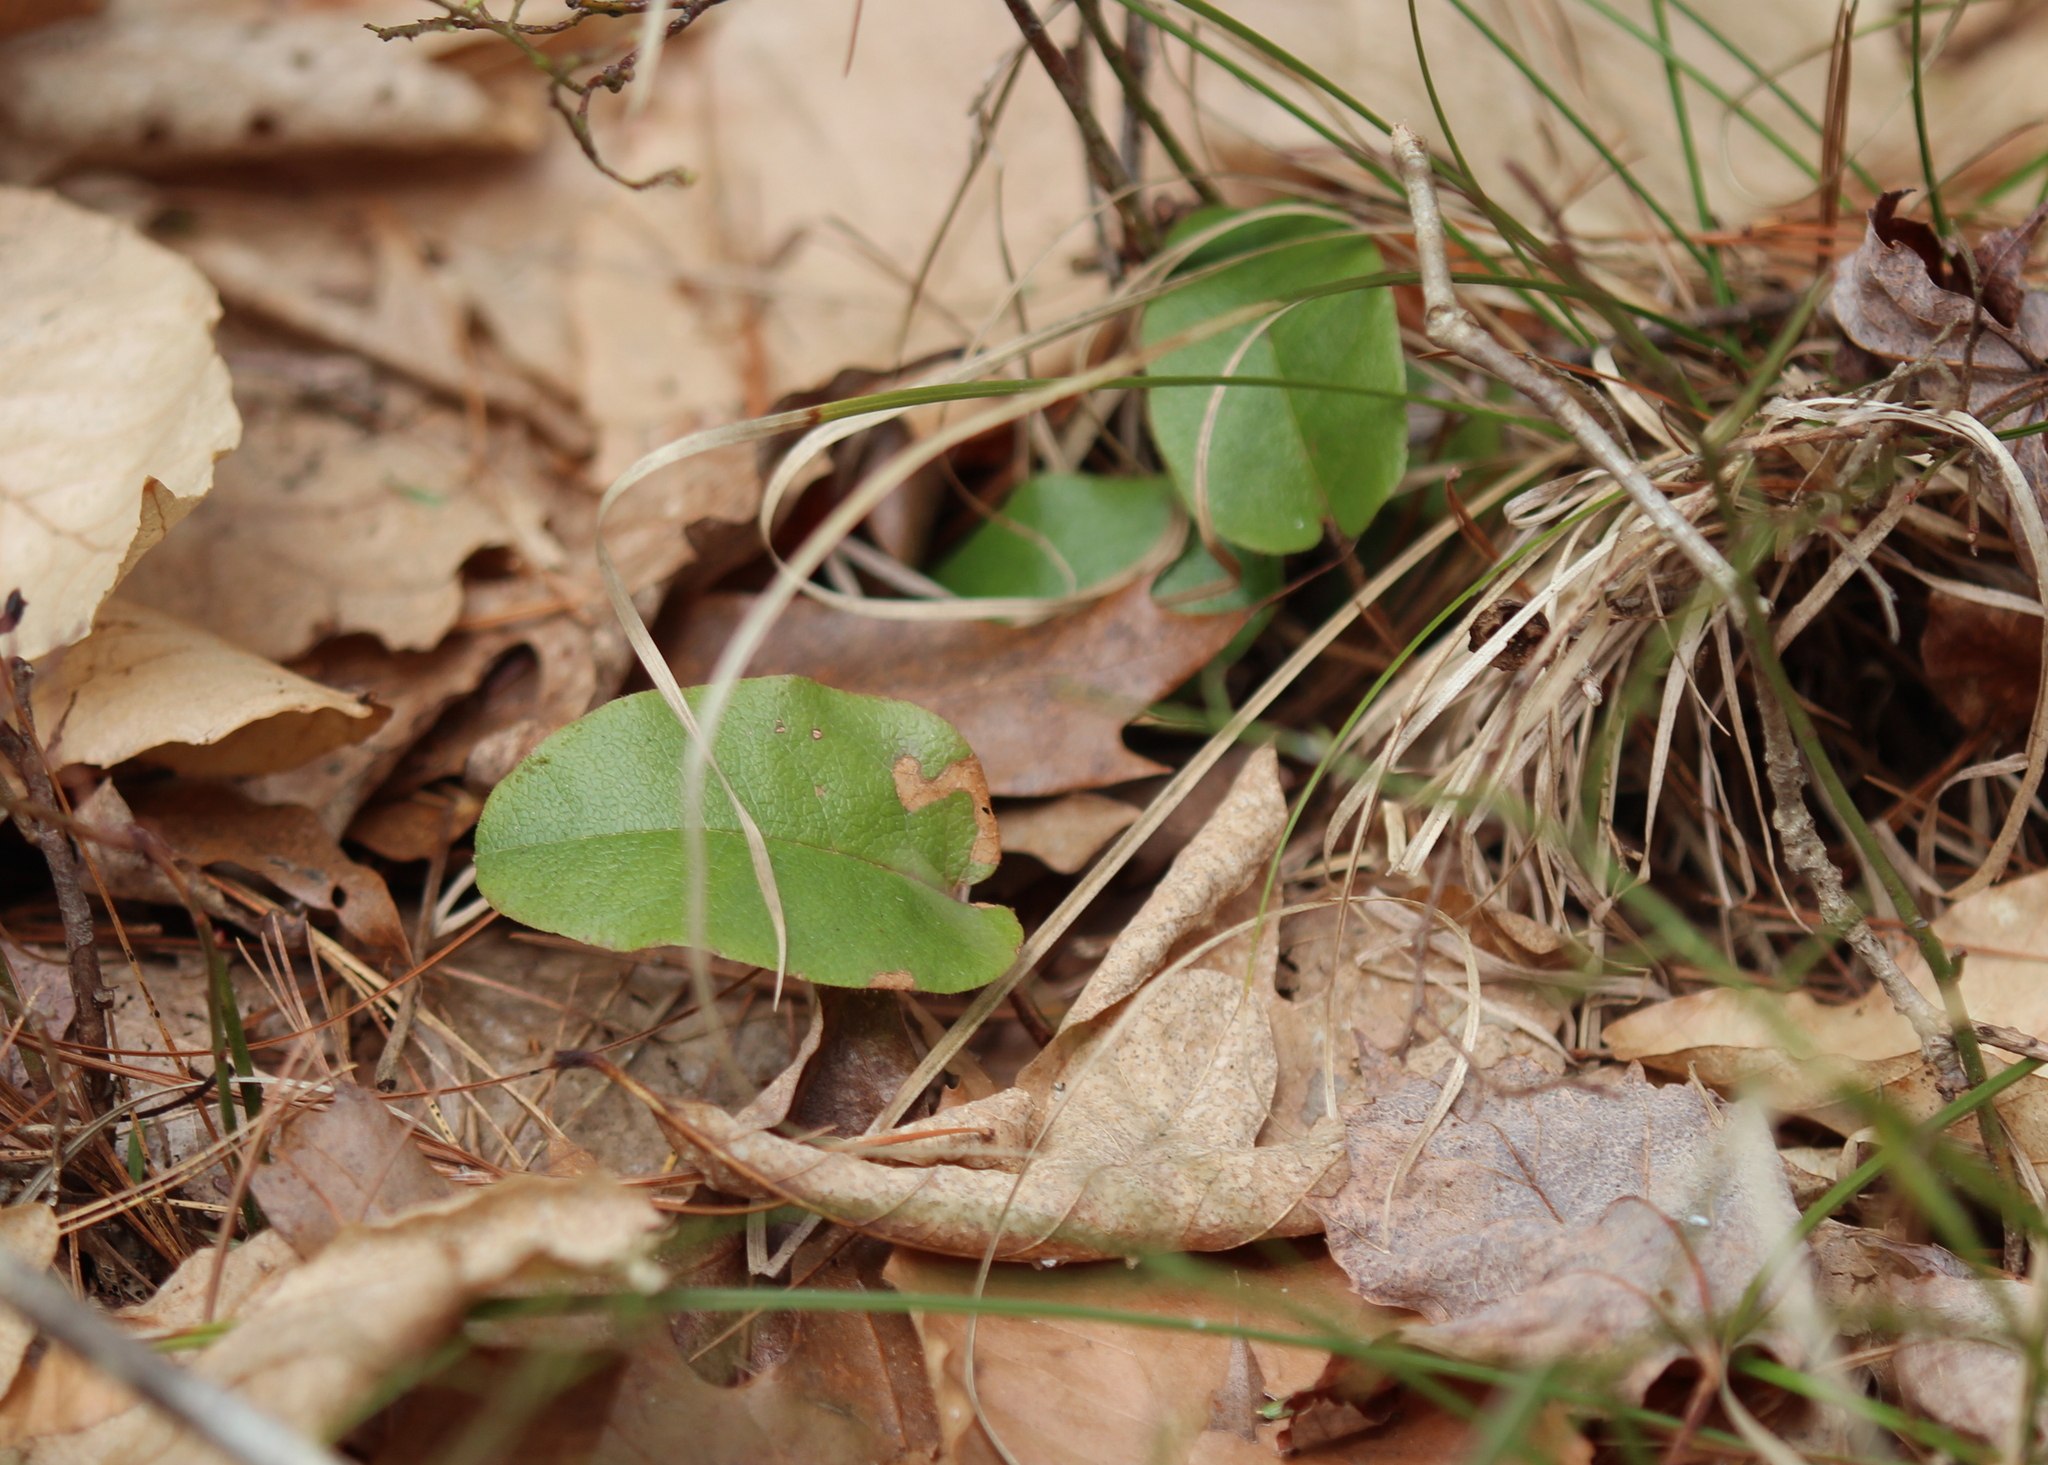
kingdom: Plantae
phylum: Tracheophyta
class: Magnoliopsida
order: Ericales
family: Ericaceae
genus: Epigaea
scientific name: Epigaea repens
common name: Gravelroot
